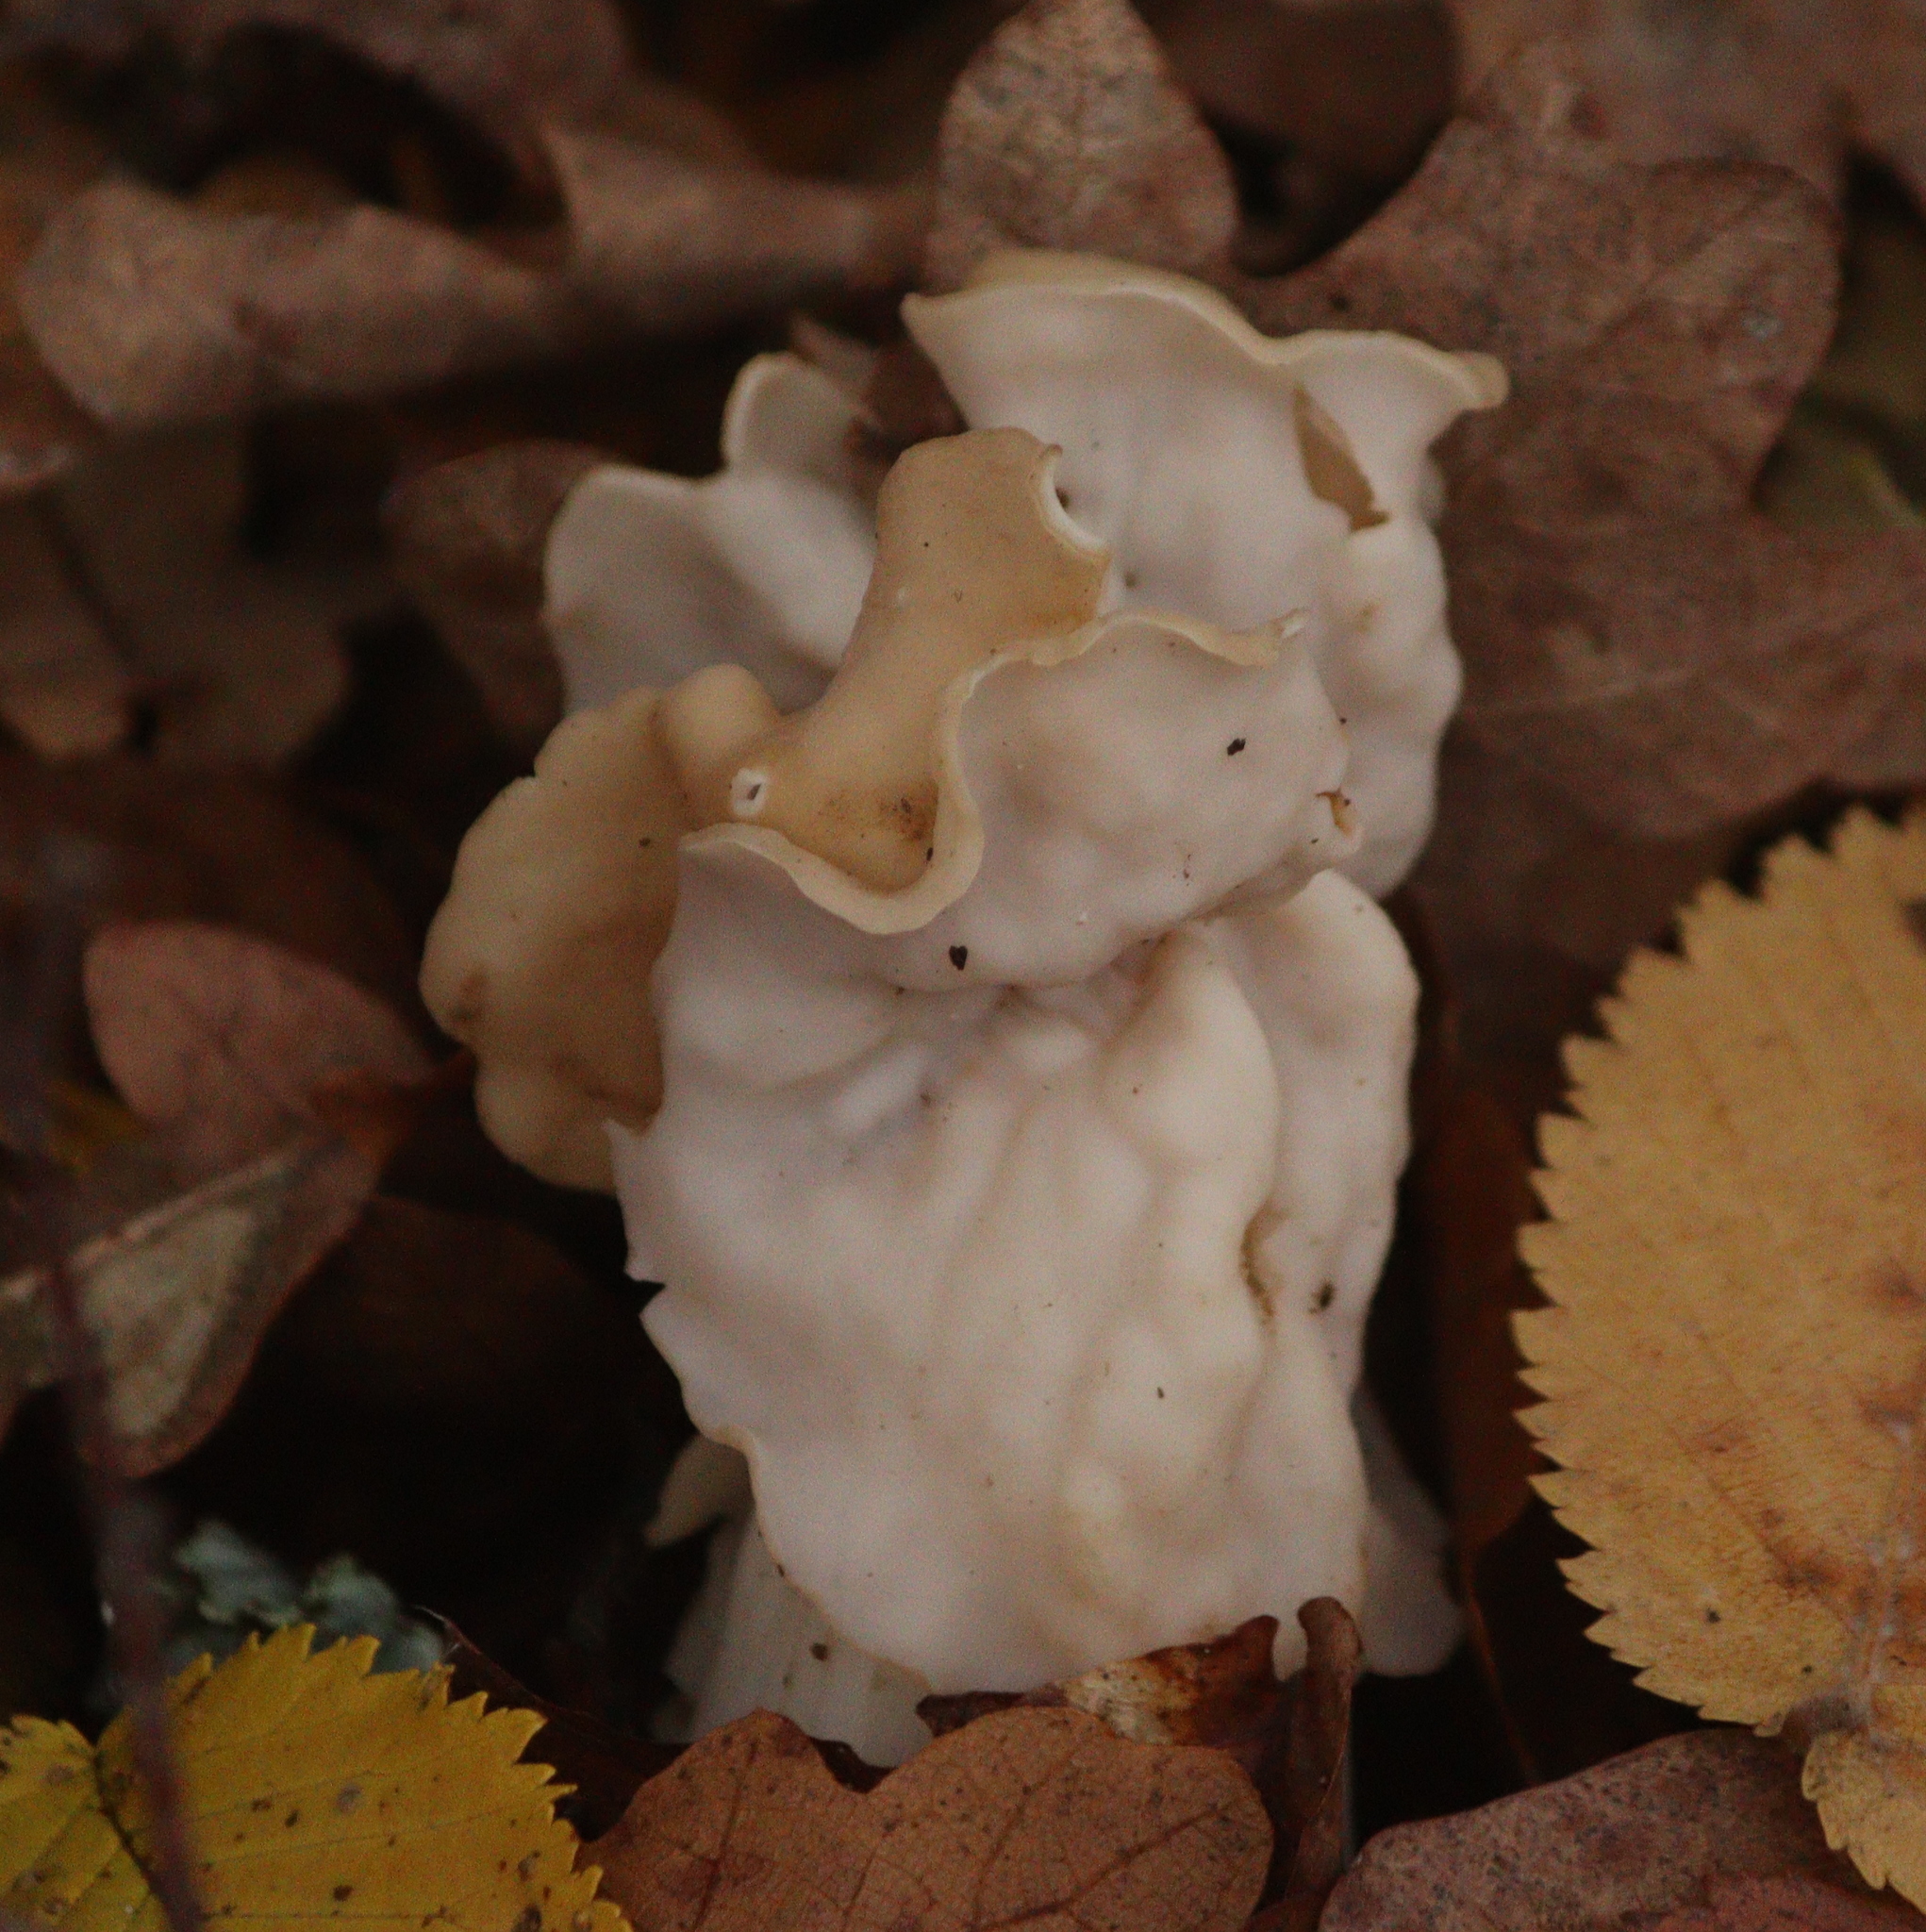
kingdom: Fungi
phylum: Ascomycota
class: Pezizomycetes
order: Pezizales
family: Helvellaceae
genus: Helvella
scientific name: Helvella crispa
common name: White saddle
